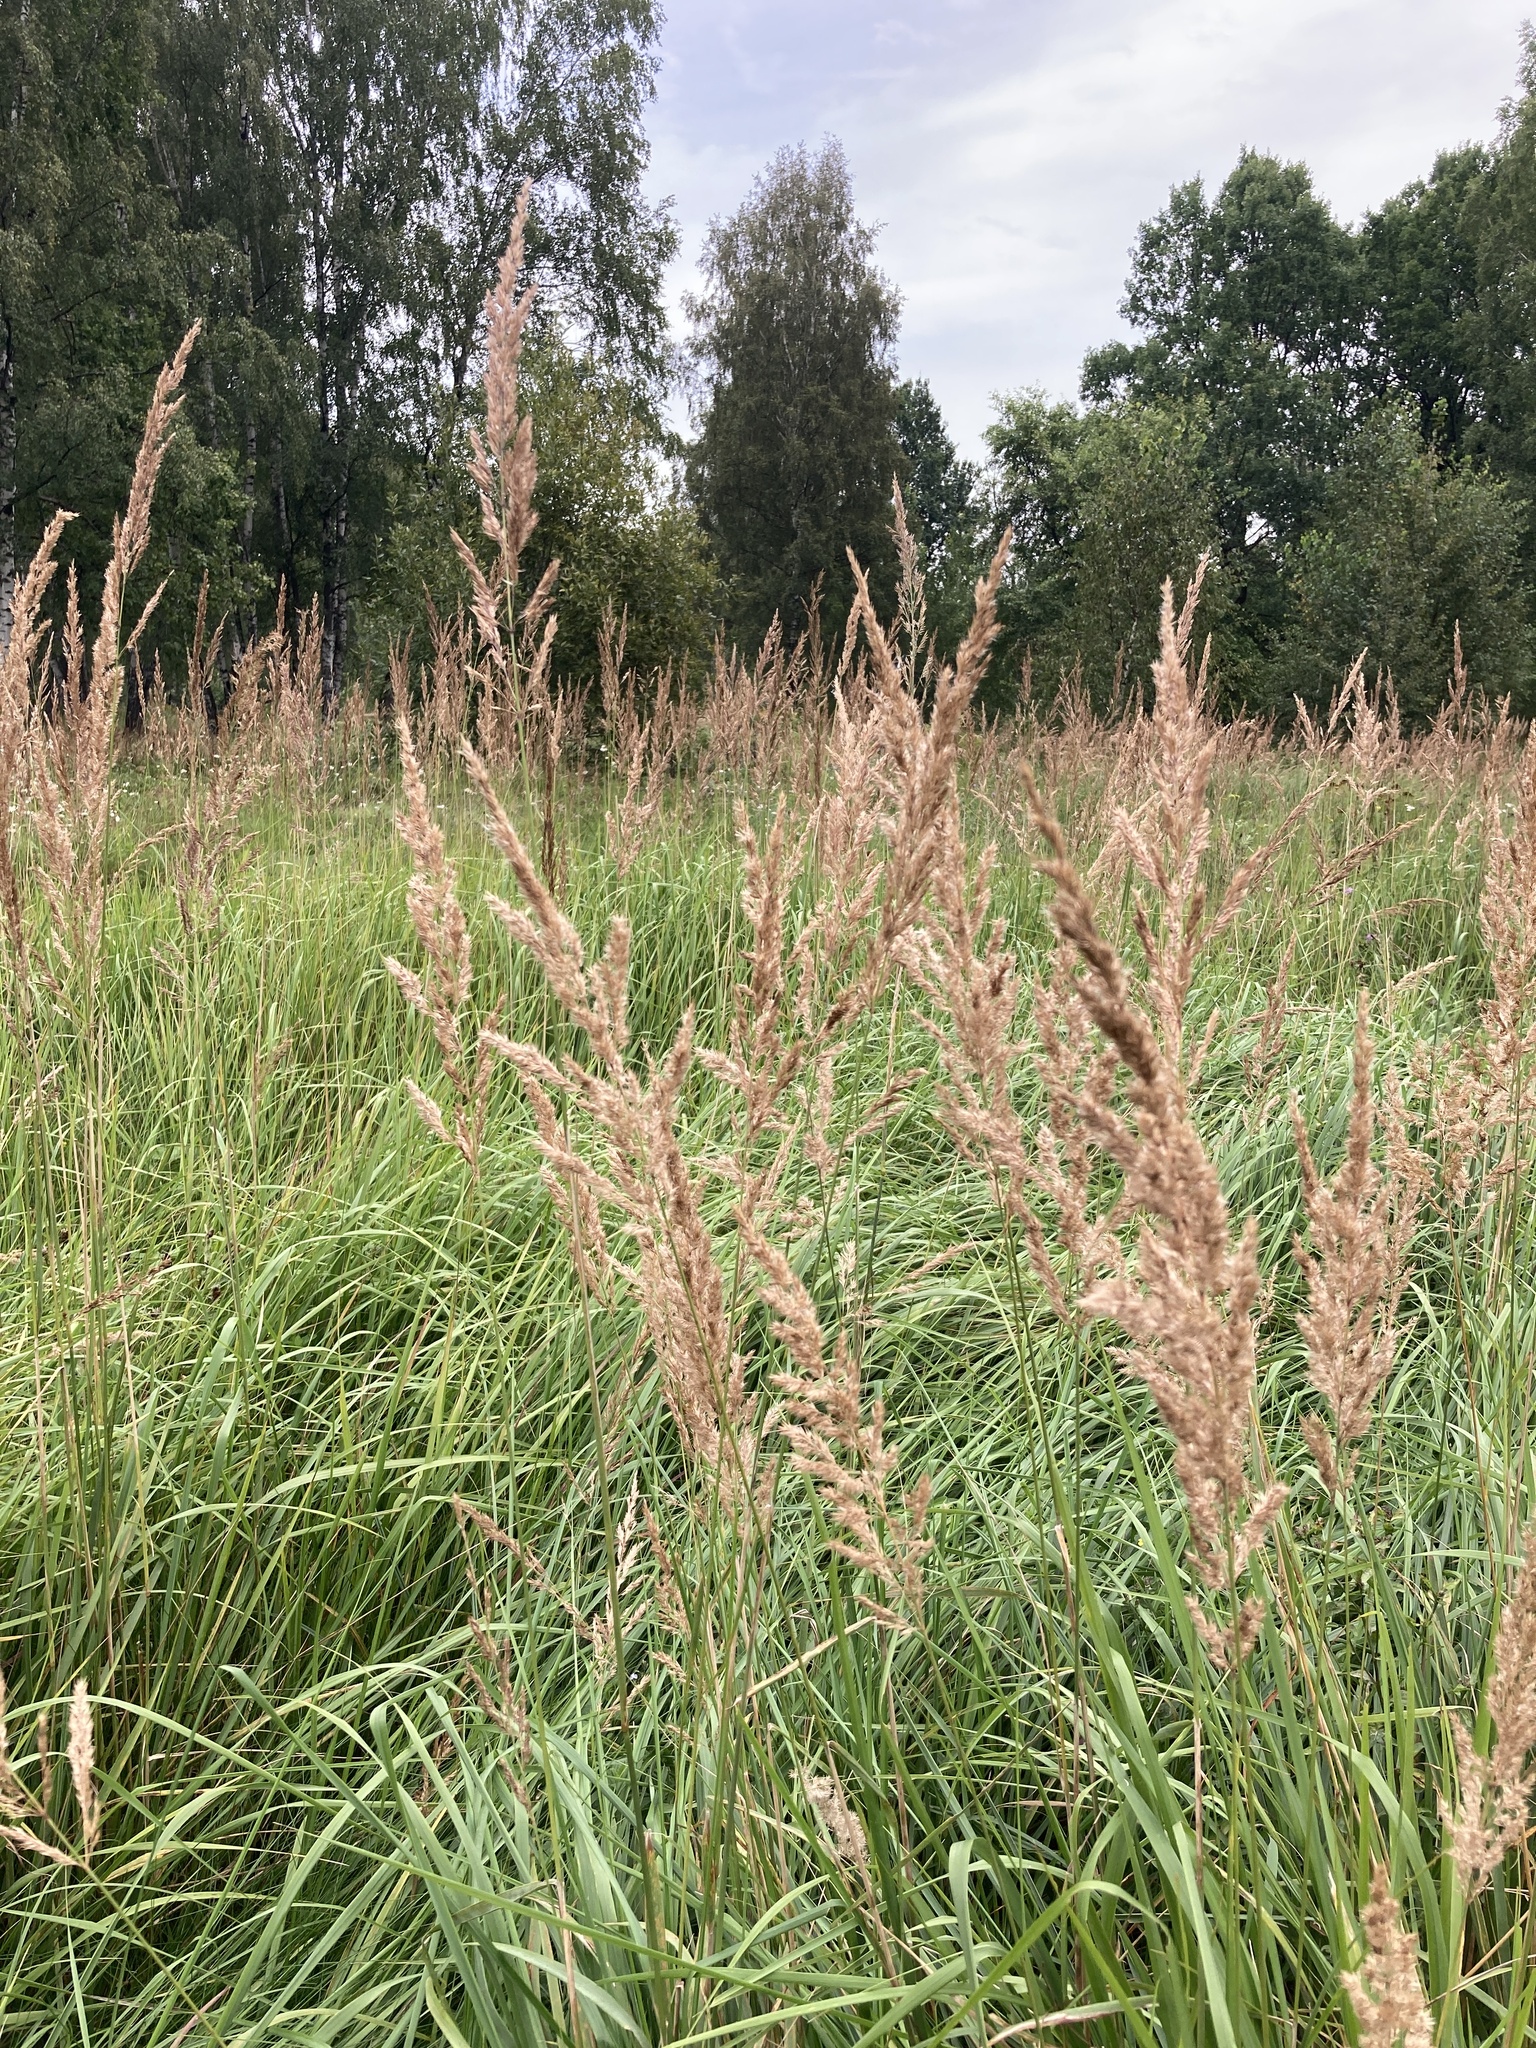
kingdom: Plantae
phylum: Tracheophyta
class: Liliopsida
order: Poales
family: Poaceae
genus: Calamagrostis
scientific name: Calamagrostis epigejos
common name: Wood small-reed
